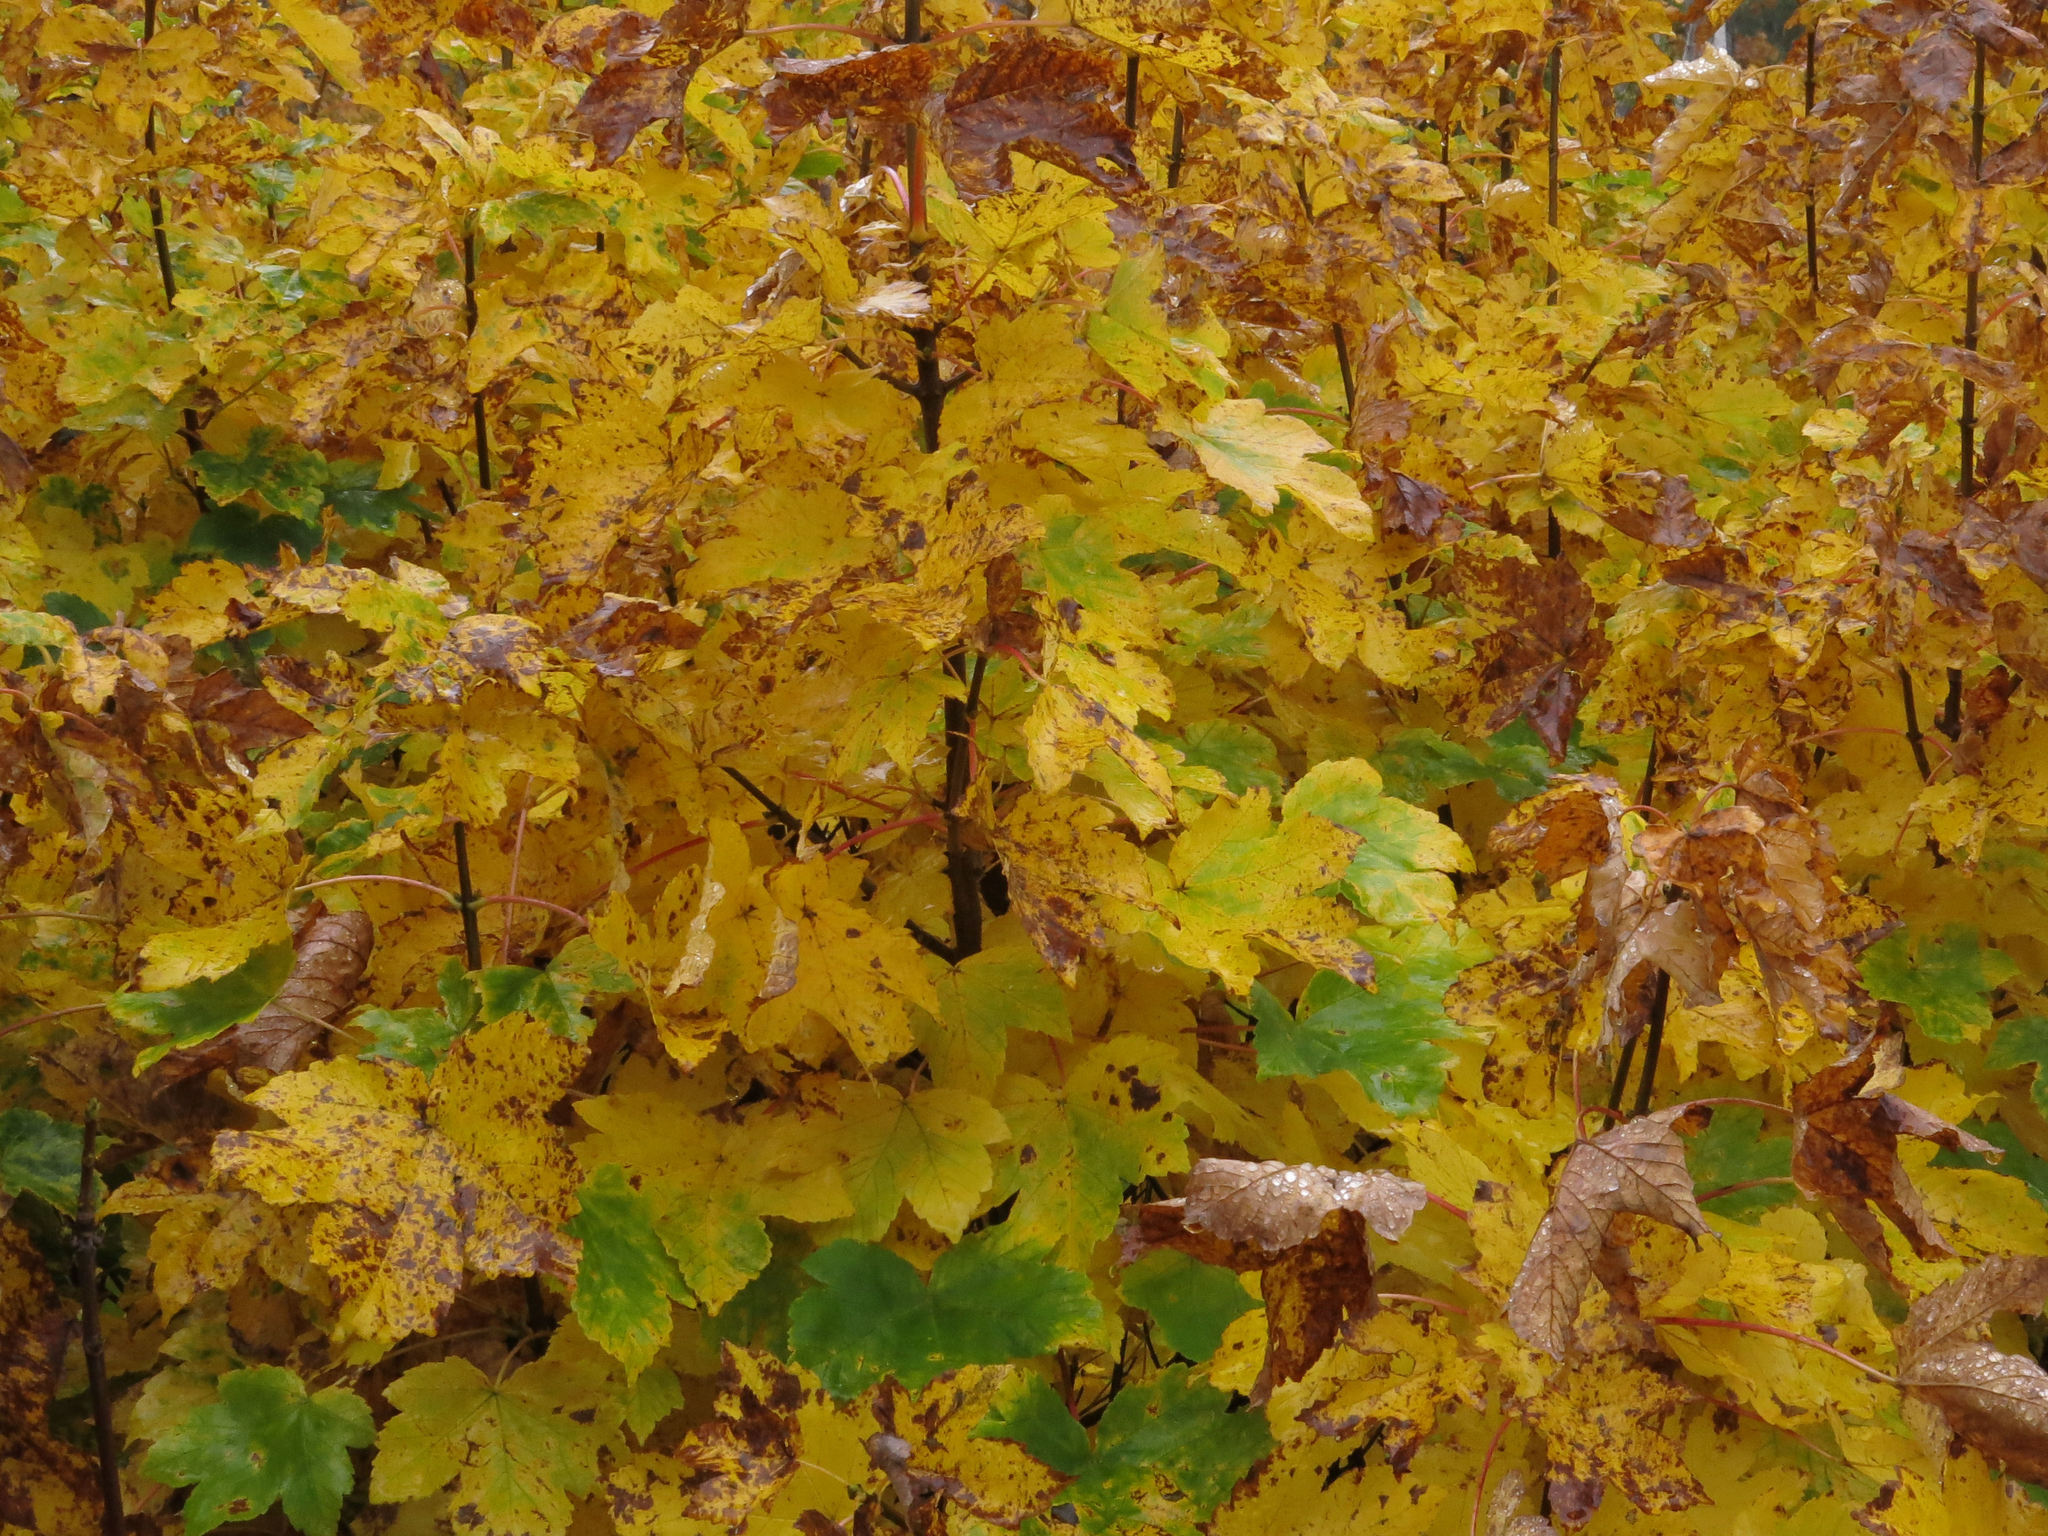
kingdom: Plantae
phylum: Tracheophyta
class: Magnoliopsida
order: Sapindales
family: Sapindaceae
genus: Acer
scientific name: Acer pseudoplatanus
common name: Sycamore
